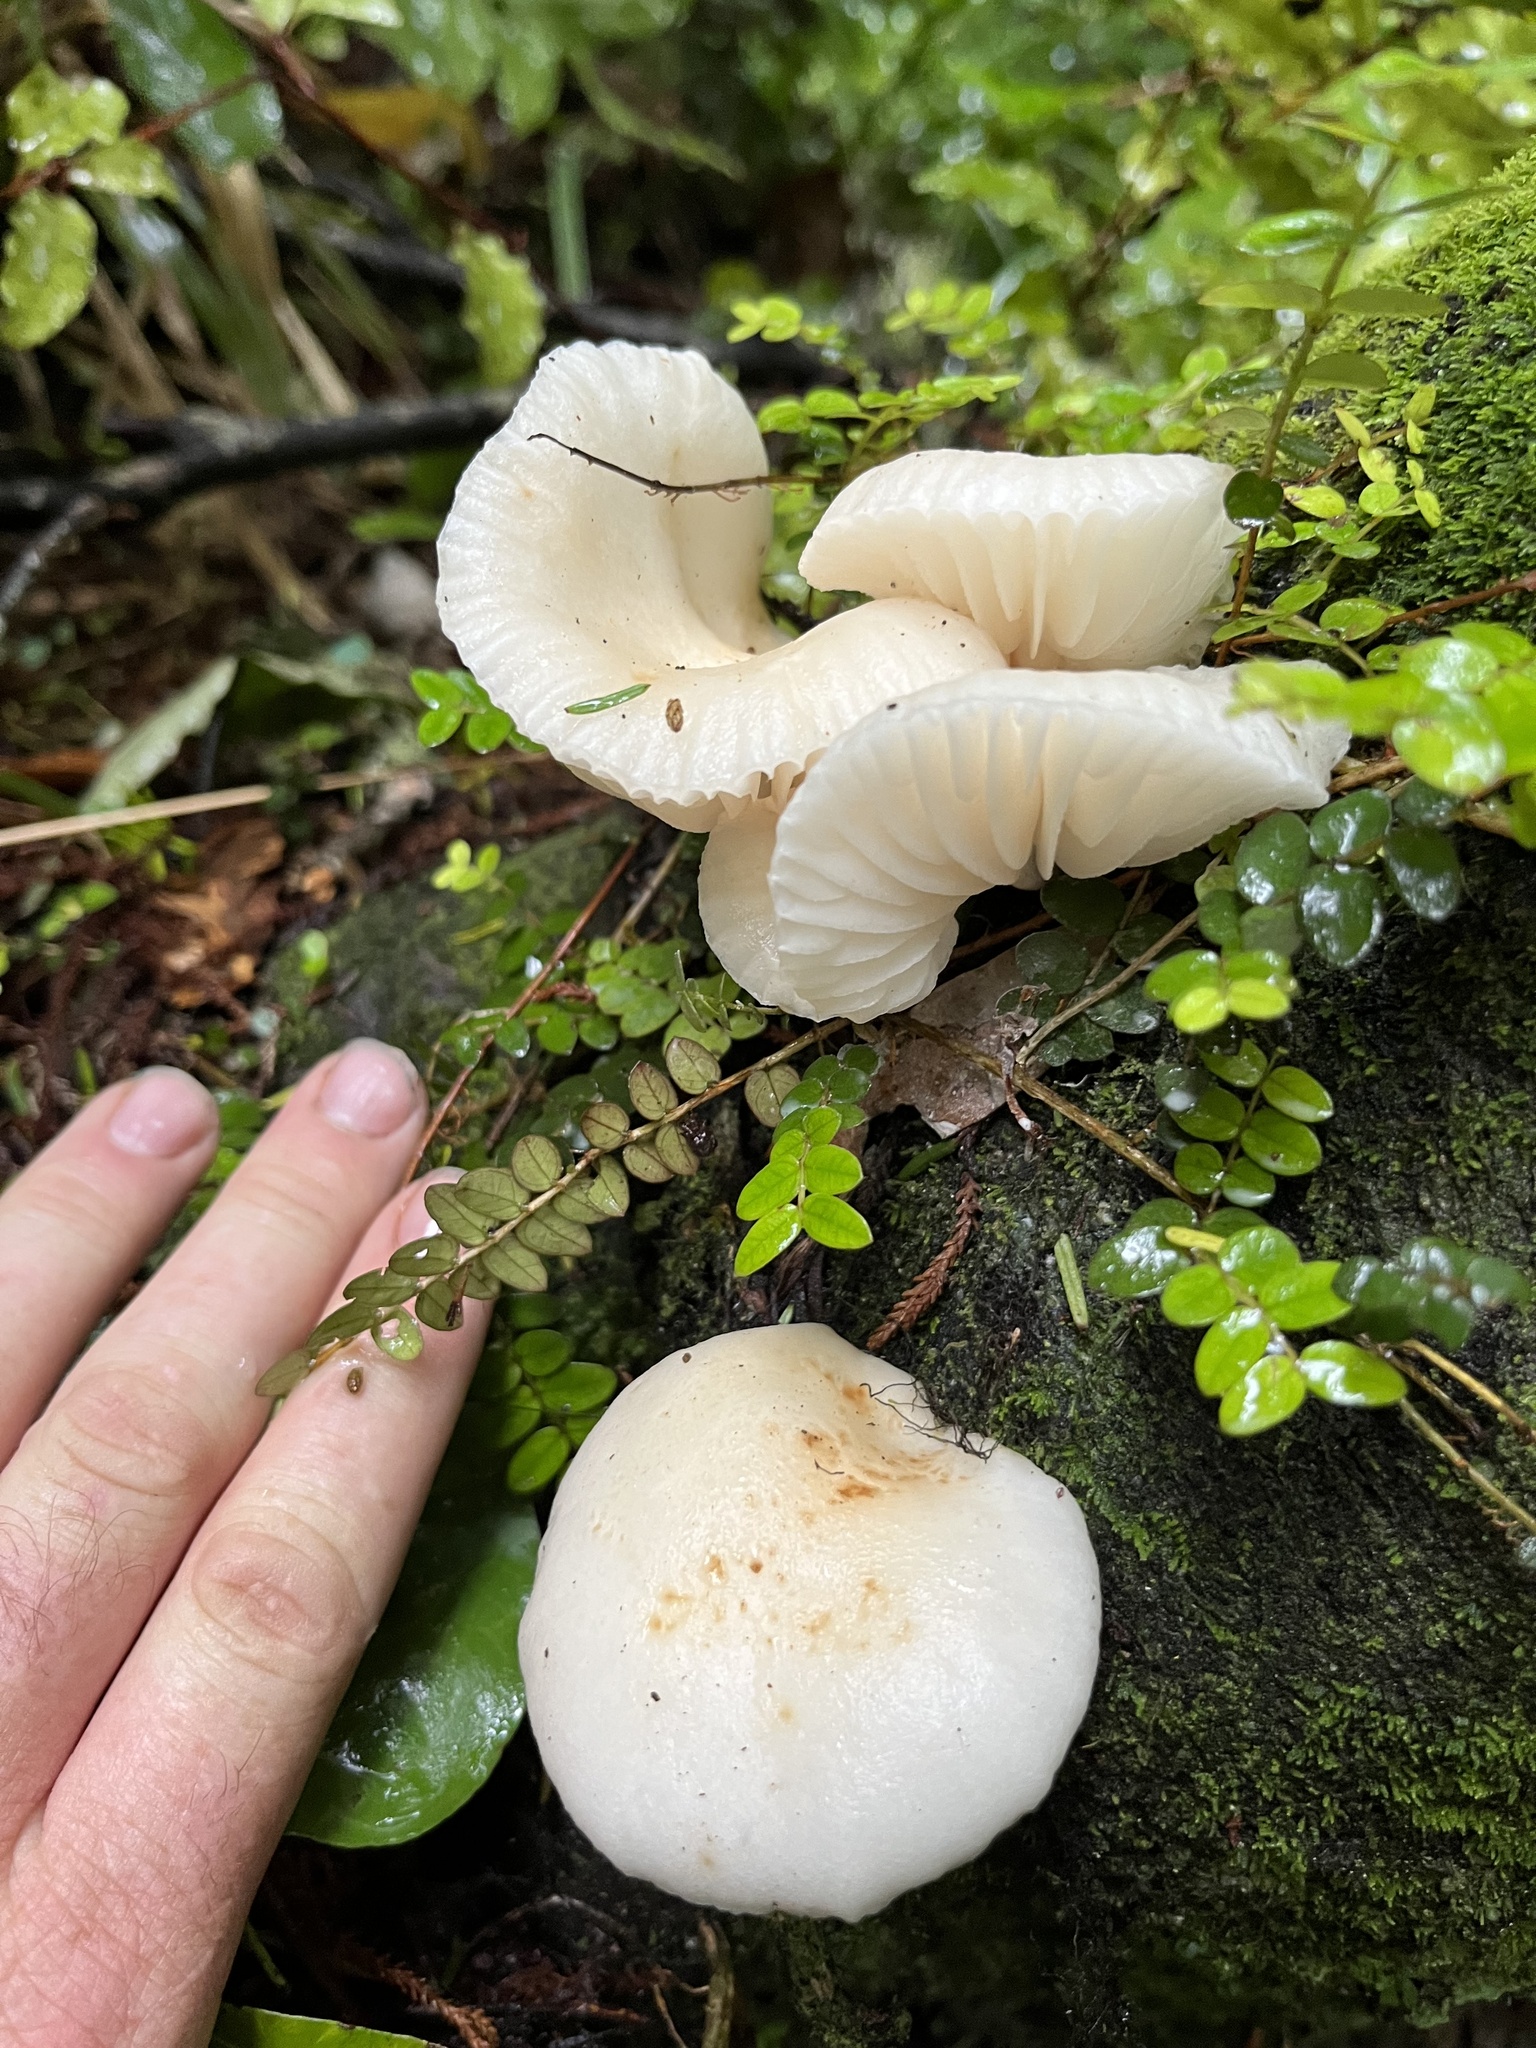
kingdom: Fungi
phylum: Basidiomycota
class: Agaricomycetes
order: Agaricales
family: Physalacriaceae
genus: Oudemansiella
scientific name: Oudemansiella australis
